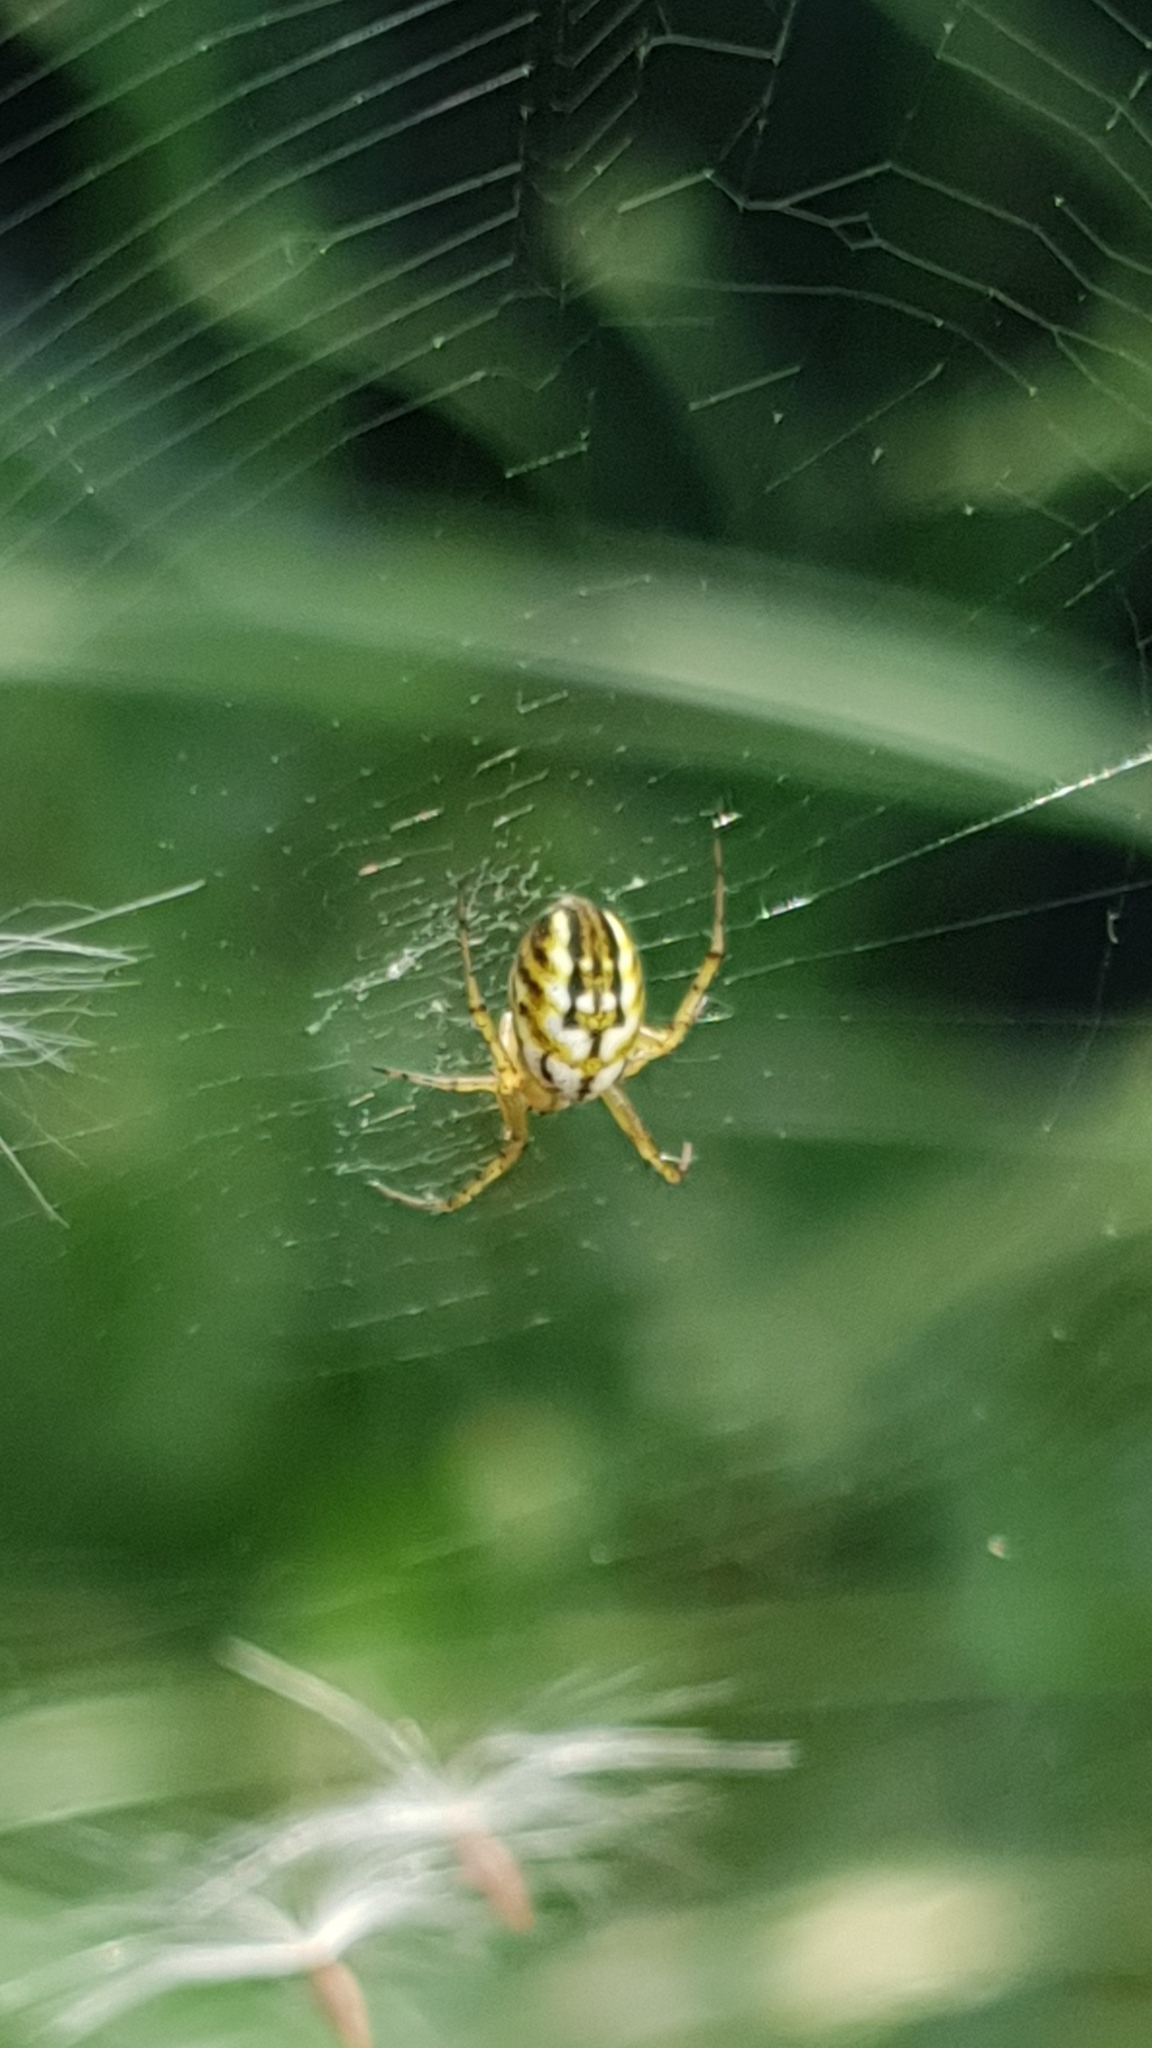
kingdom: Animalia
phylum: Arthropoda
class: Arachnida
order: Araneae
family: Araneidae
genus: Mangora
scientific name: Mangora acalypha
